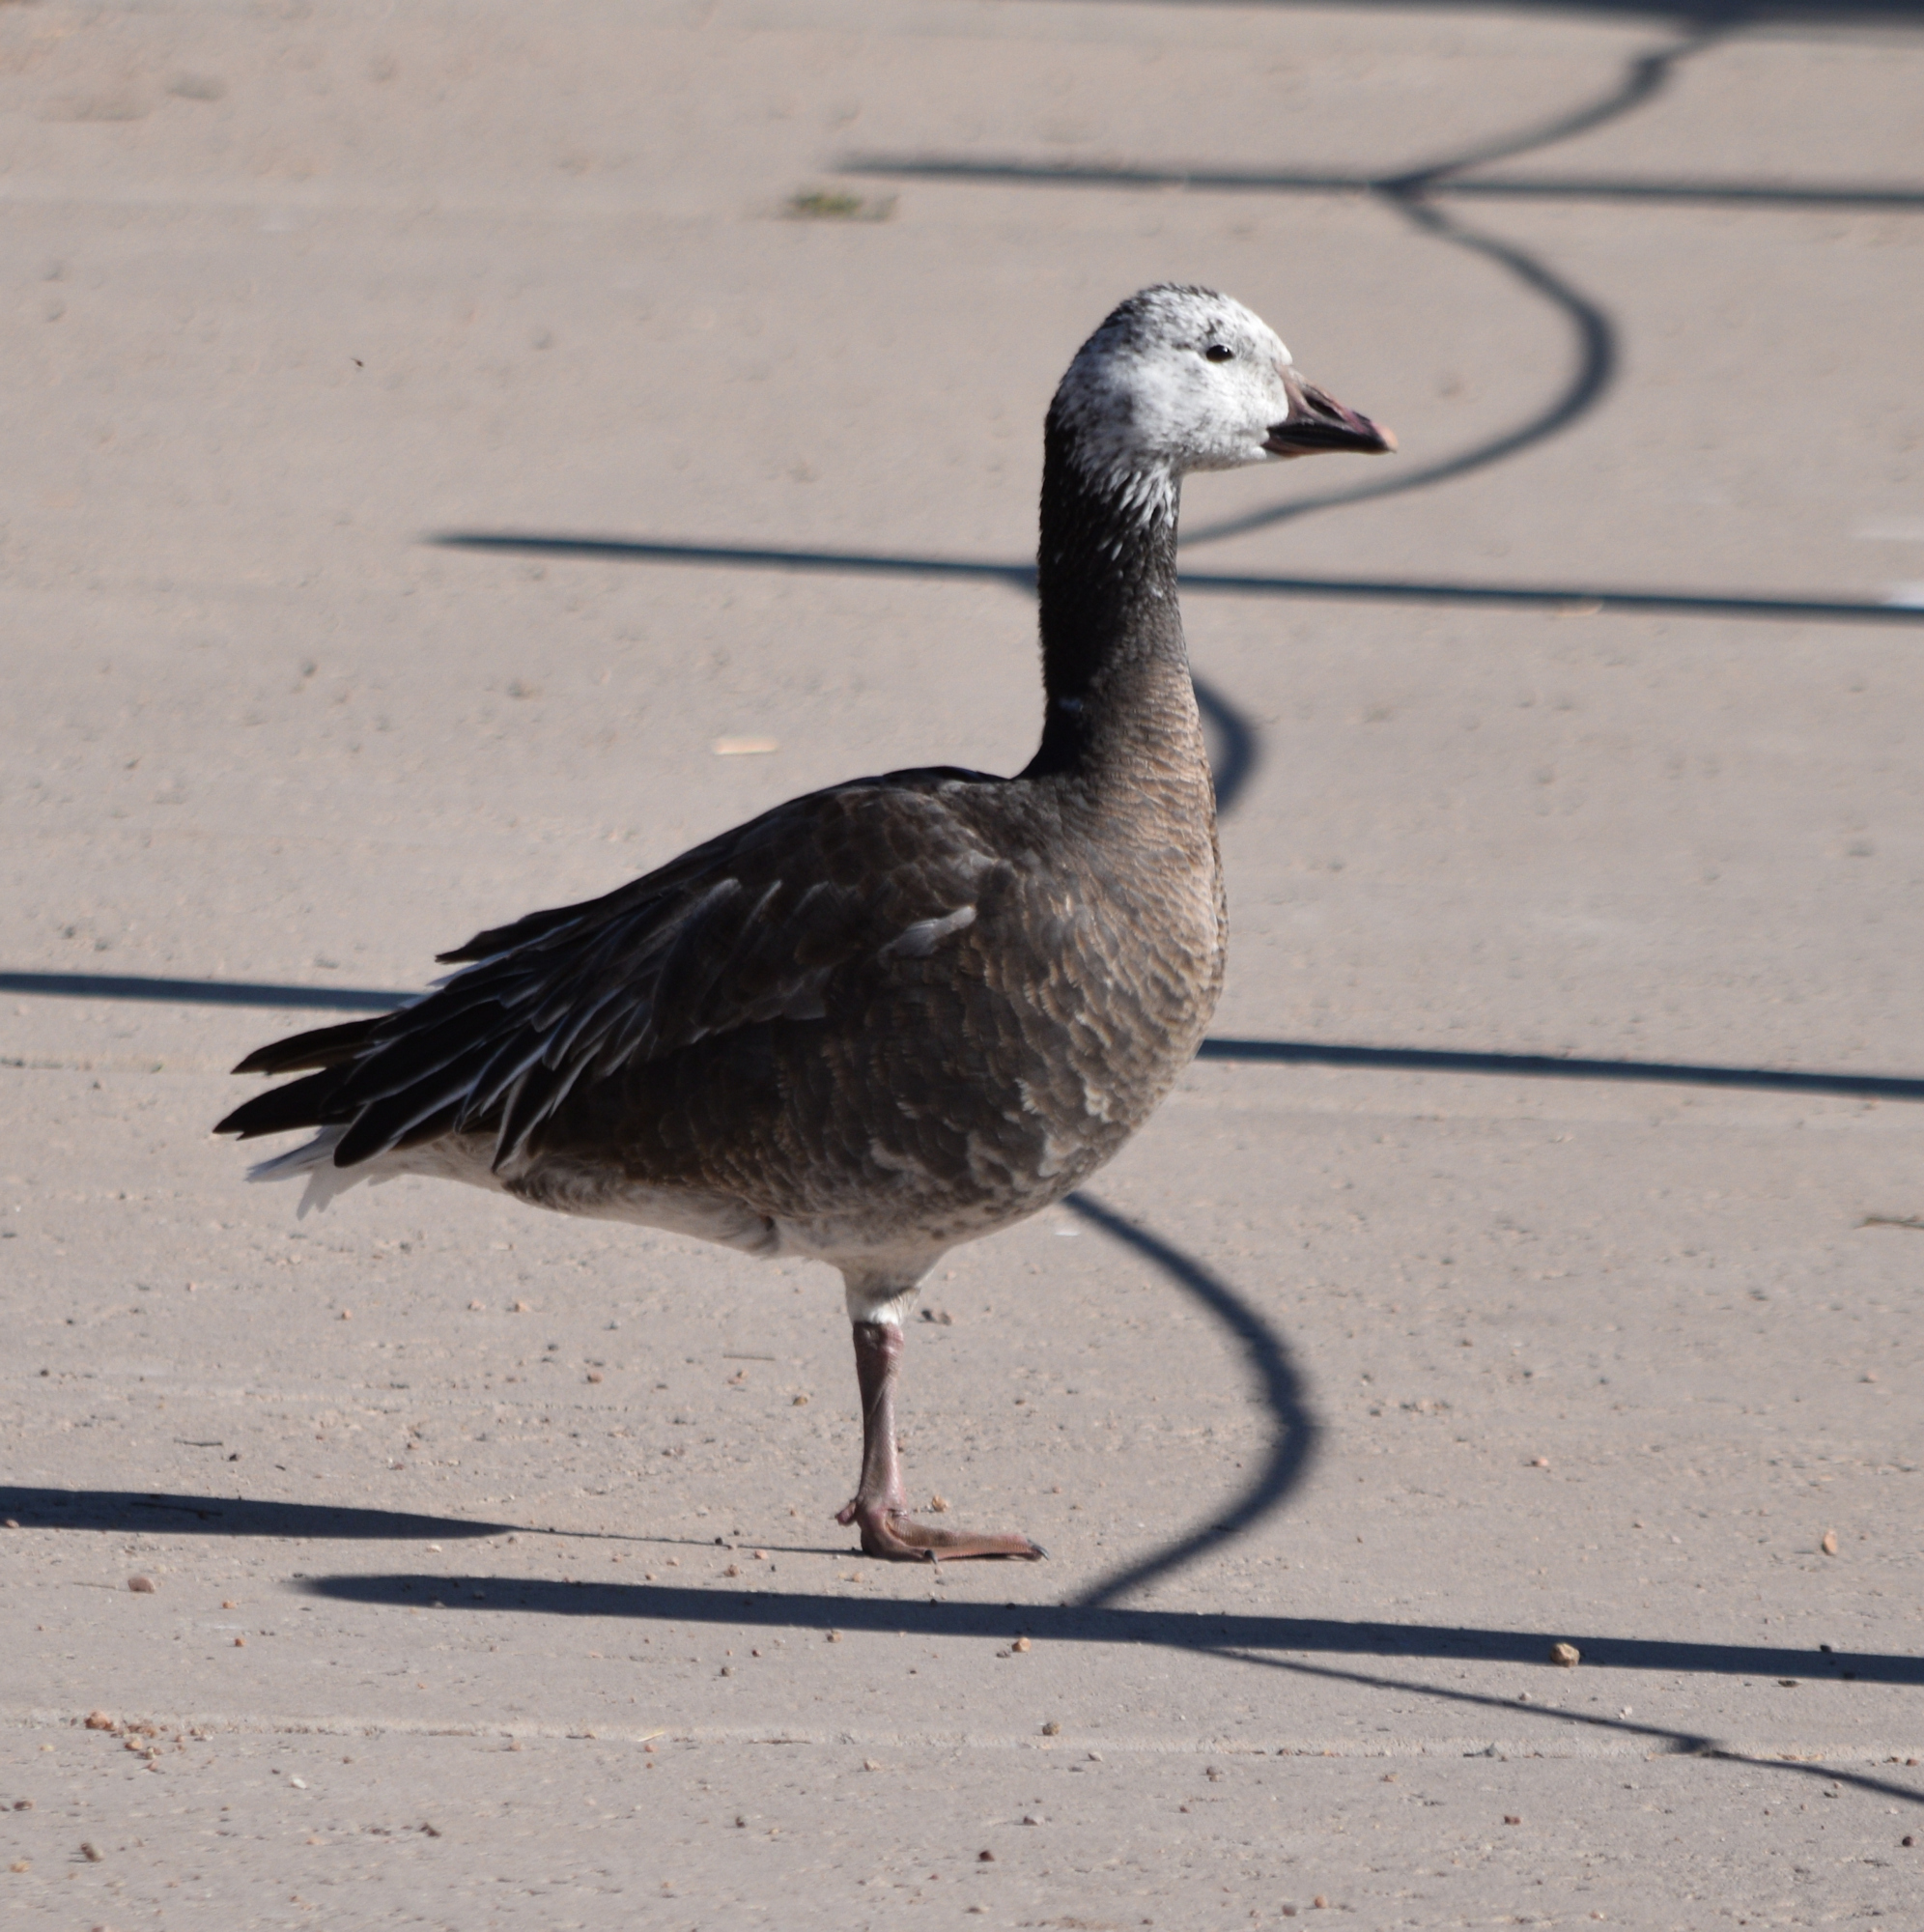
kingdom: Animalia
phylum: Chordata
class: Aves
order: Anseriformes
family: Anatidae
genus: Anser
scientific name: Anser caerulescens
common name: Snow goose
